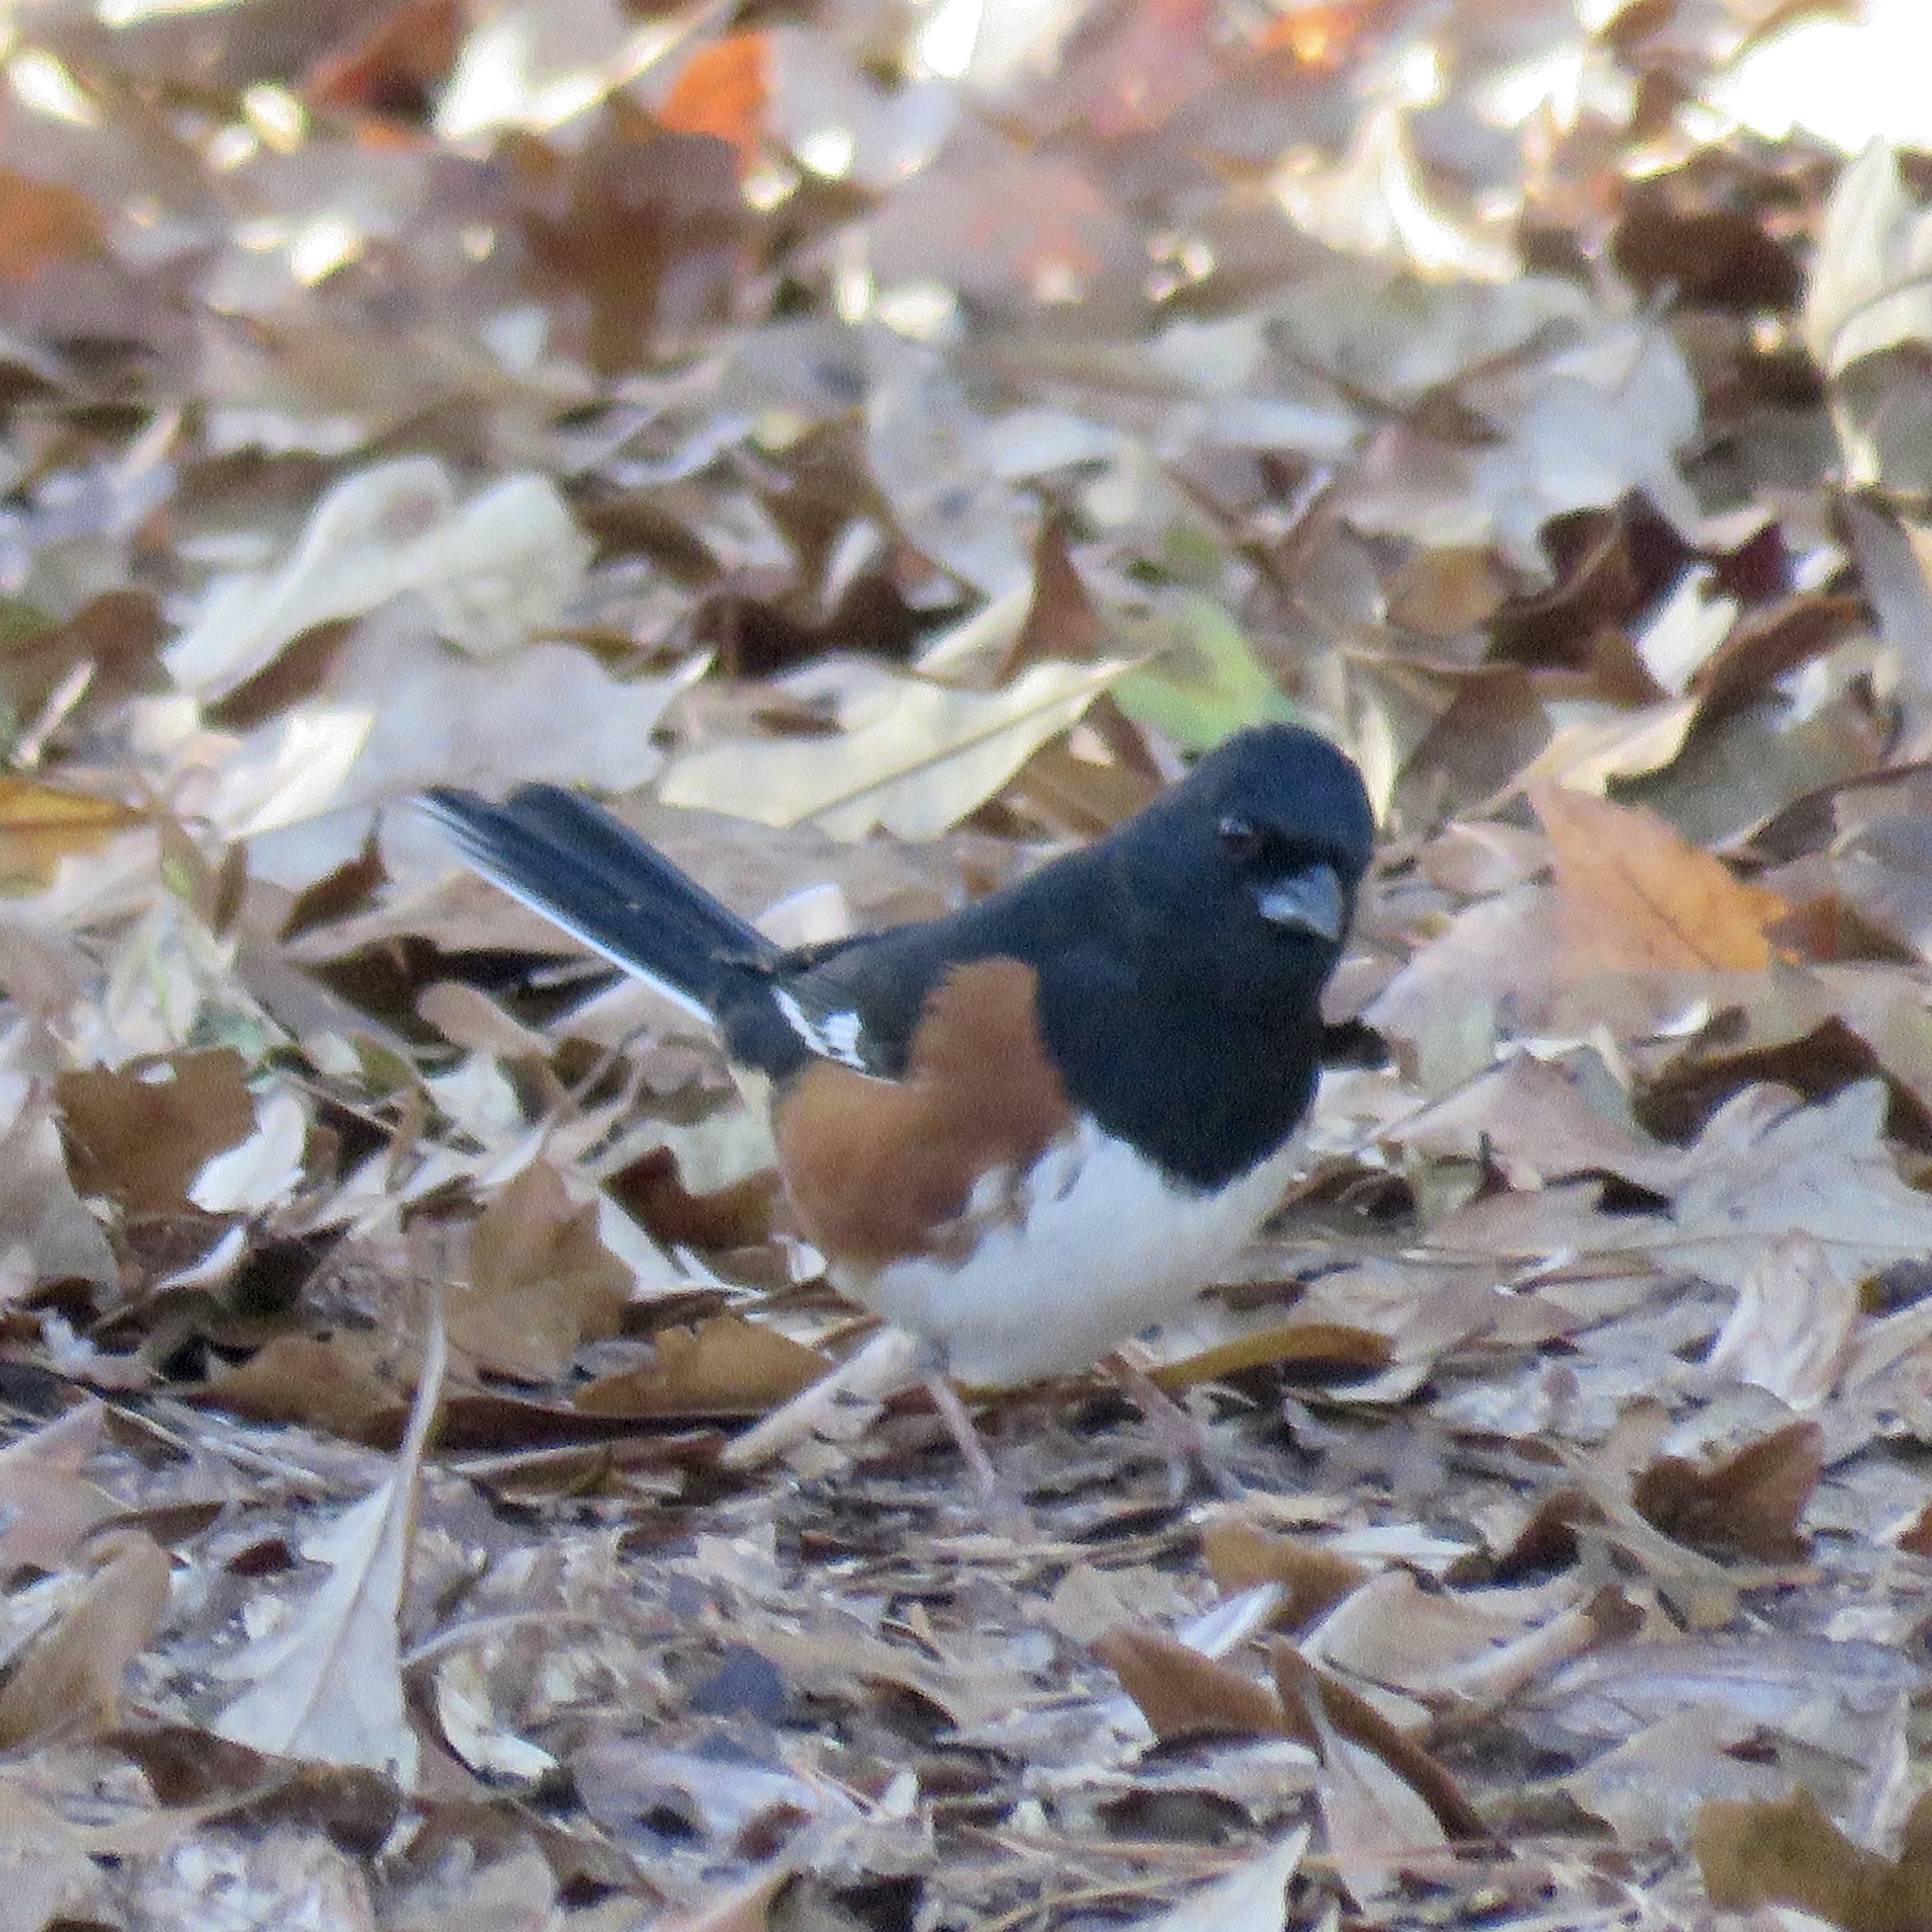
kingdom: Animalia
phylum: Chordata
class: Aves
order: Passeriformes
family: Passerellidae
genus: Pipilo
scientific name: Pipilo erythrophthalmus
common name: Eastern towhee
